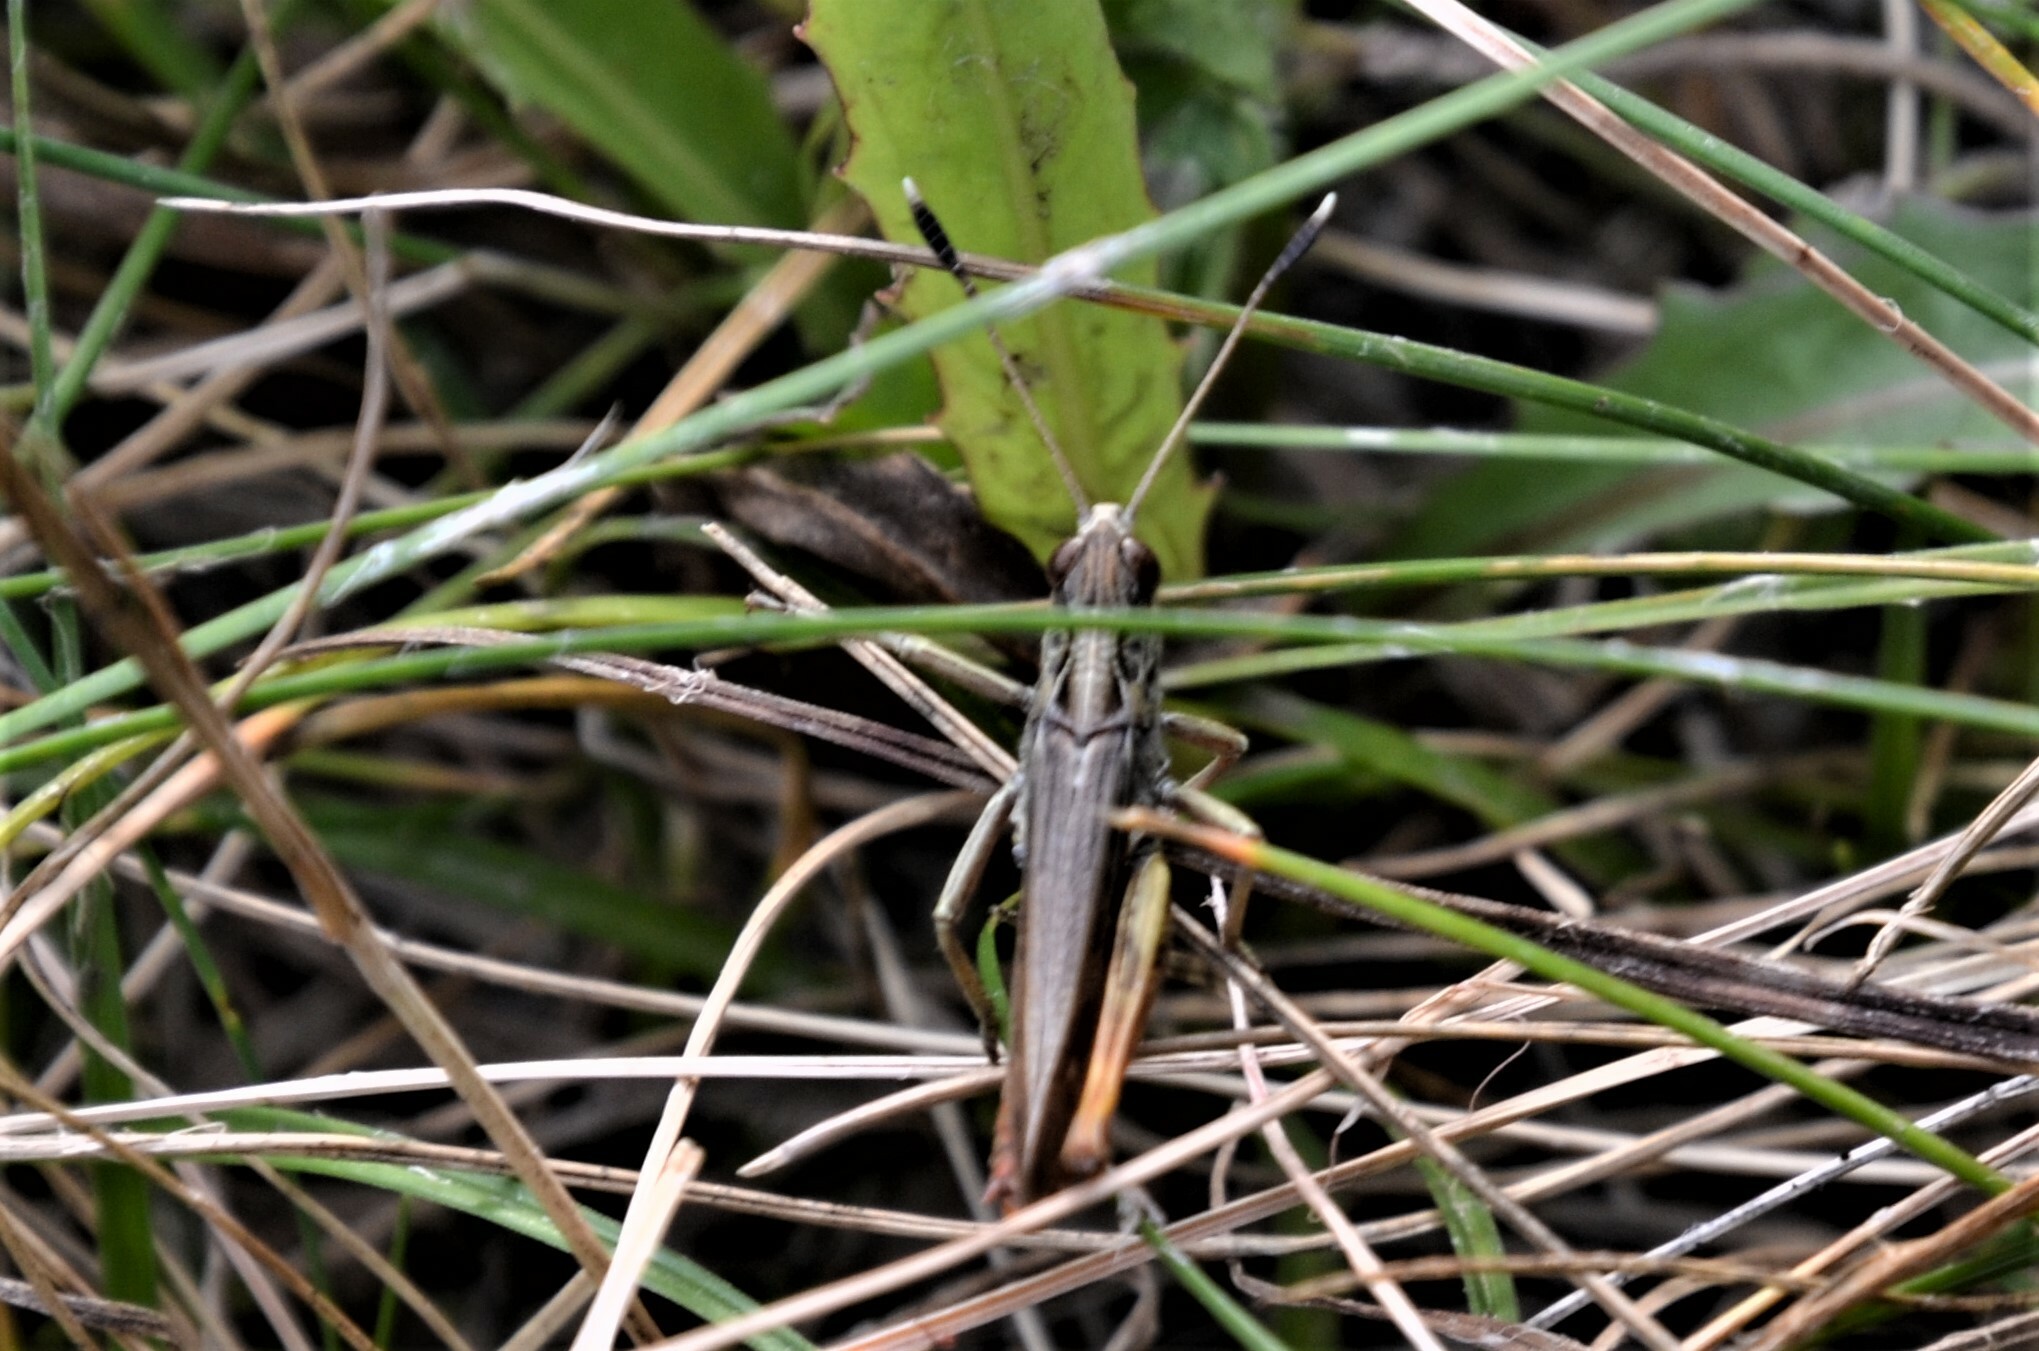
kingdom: Animalia
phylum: Arthropoda
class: Insecta
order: Orthoptera
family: Acrididae
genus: Gomphocerippus
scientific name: Gomphocerippus rufus
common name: Rufous grasshopper
